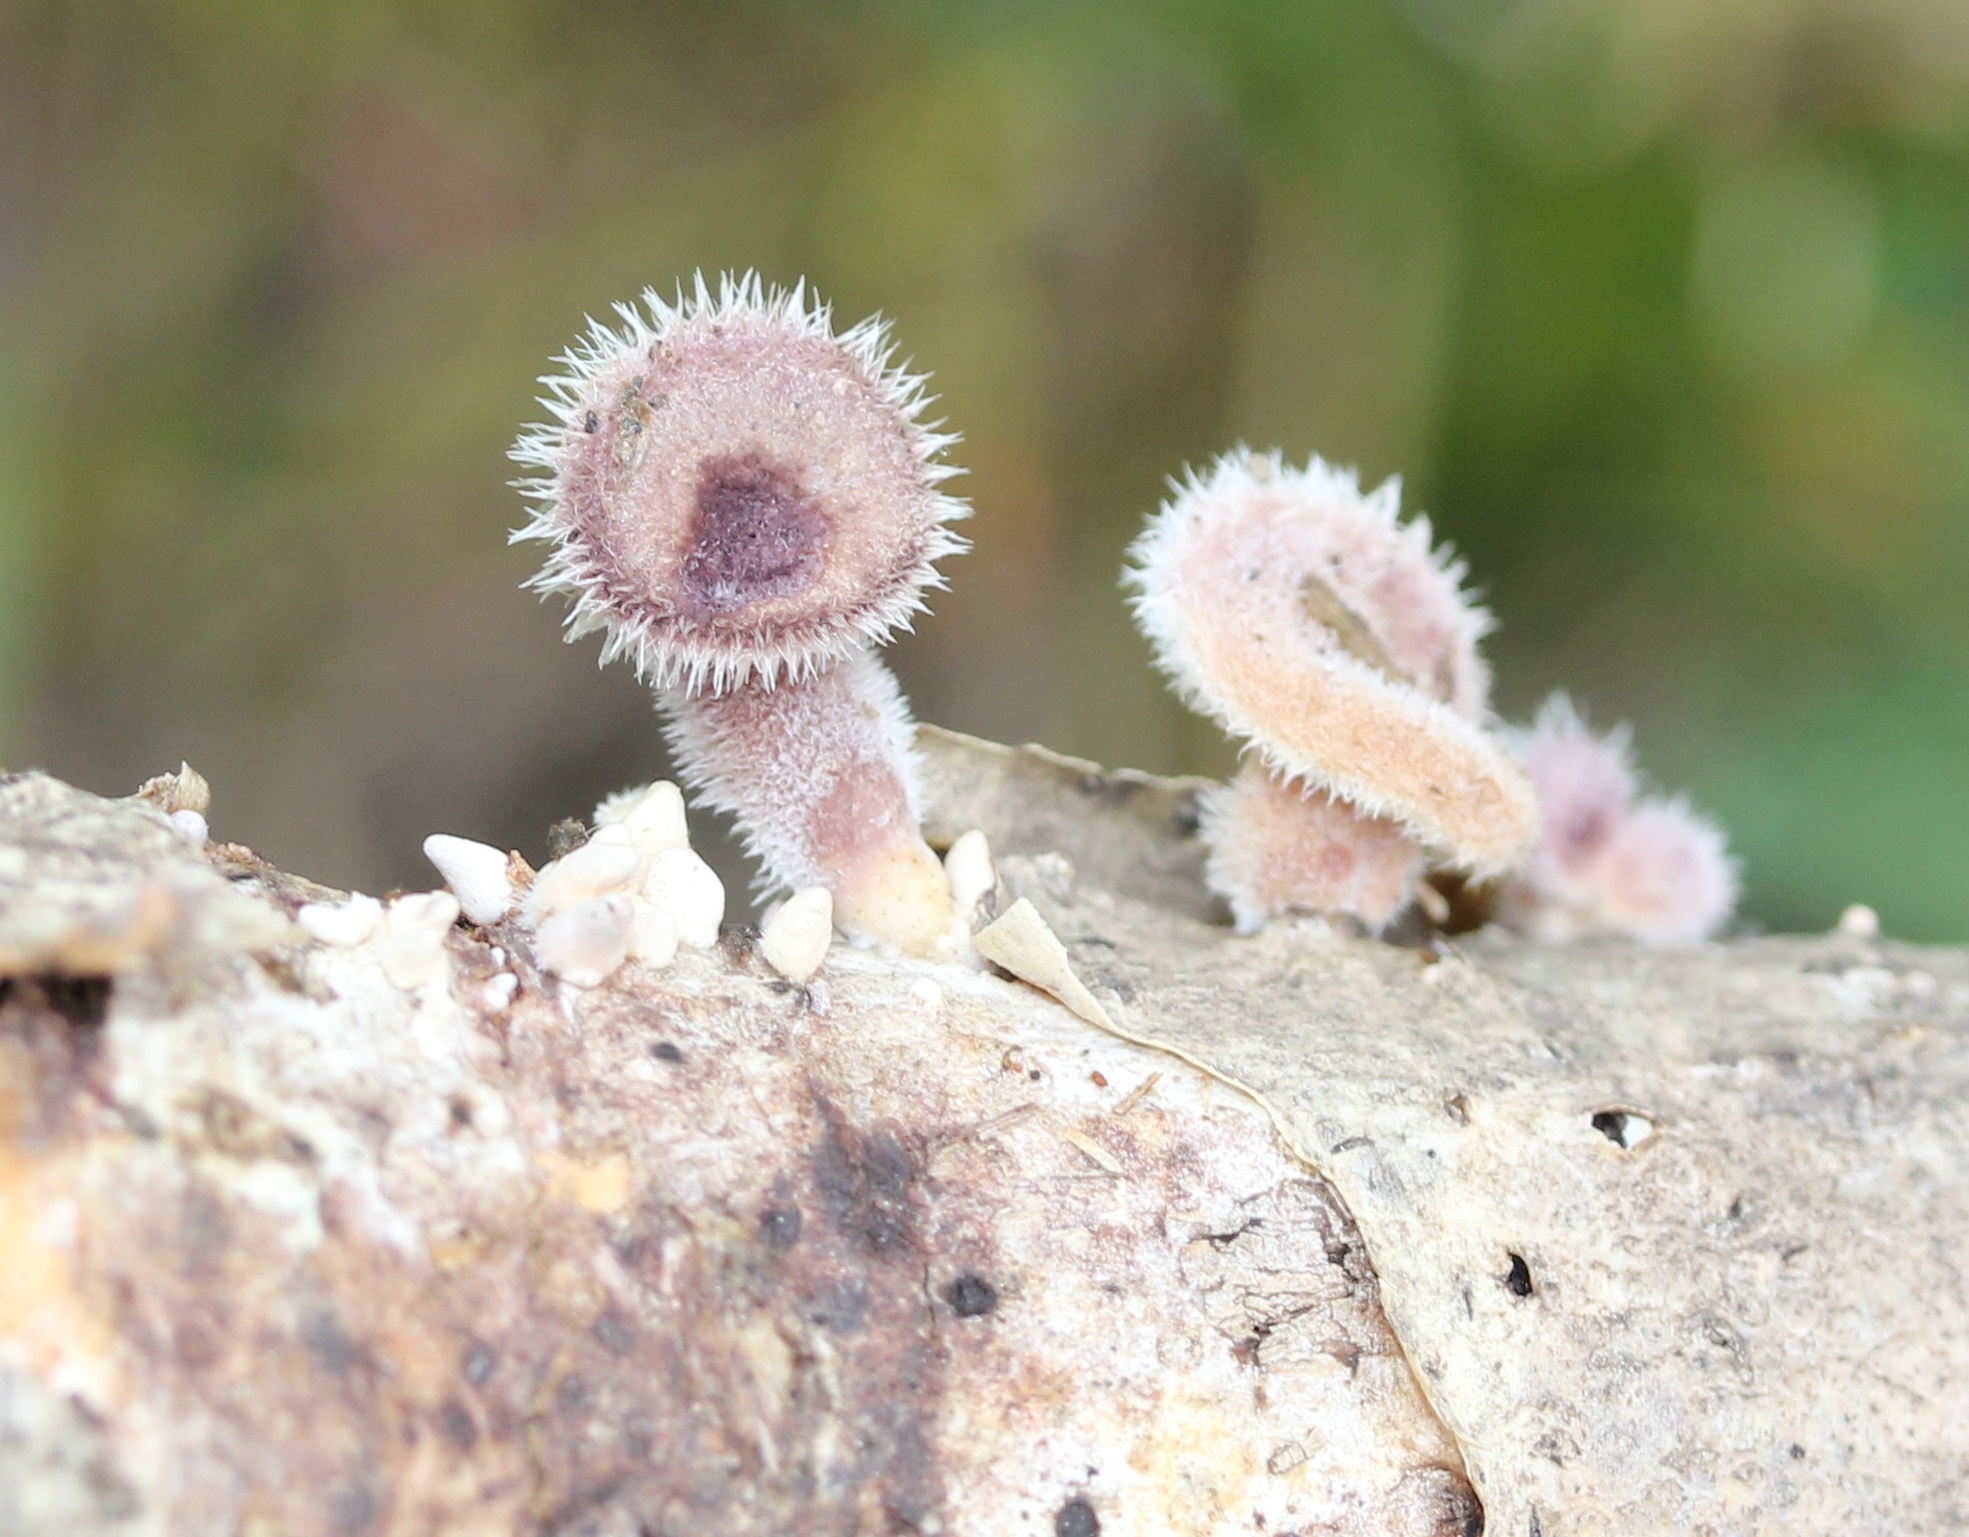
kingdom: Fungi
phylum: Basidiomycota
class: Agaricomycetes
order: Polyporales
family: Panaceae
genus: Panus
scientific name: Panus neostrigosus
